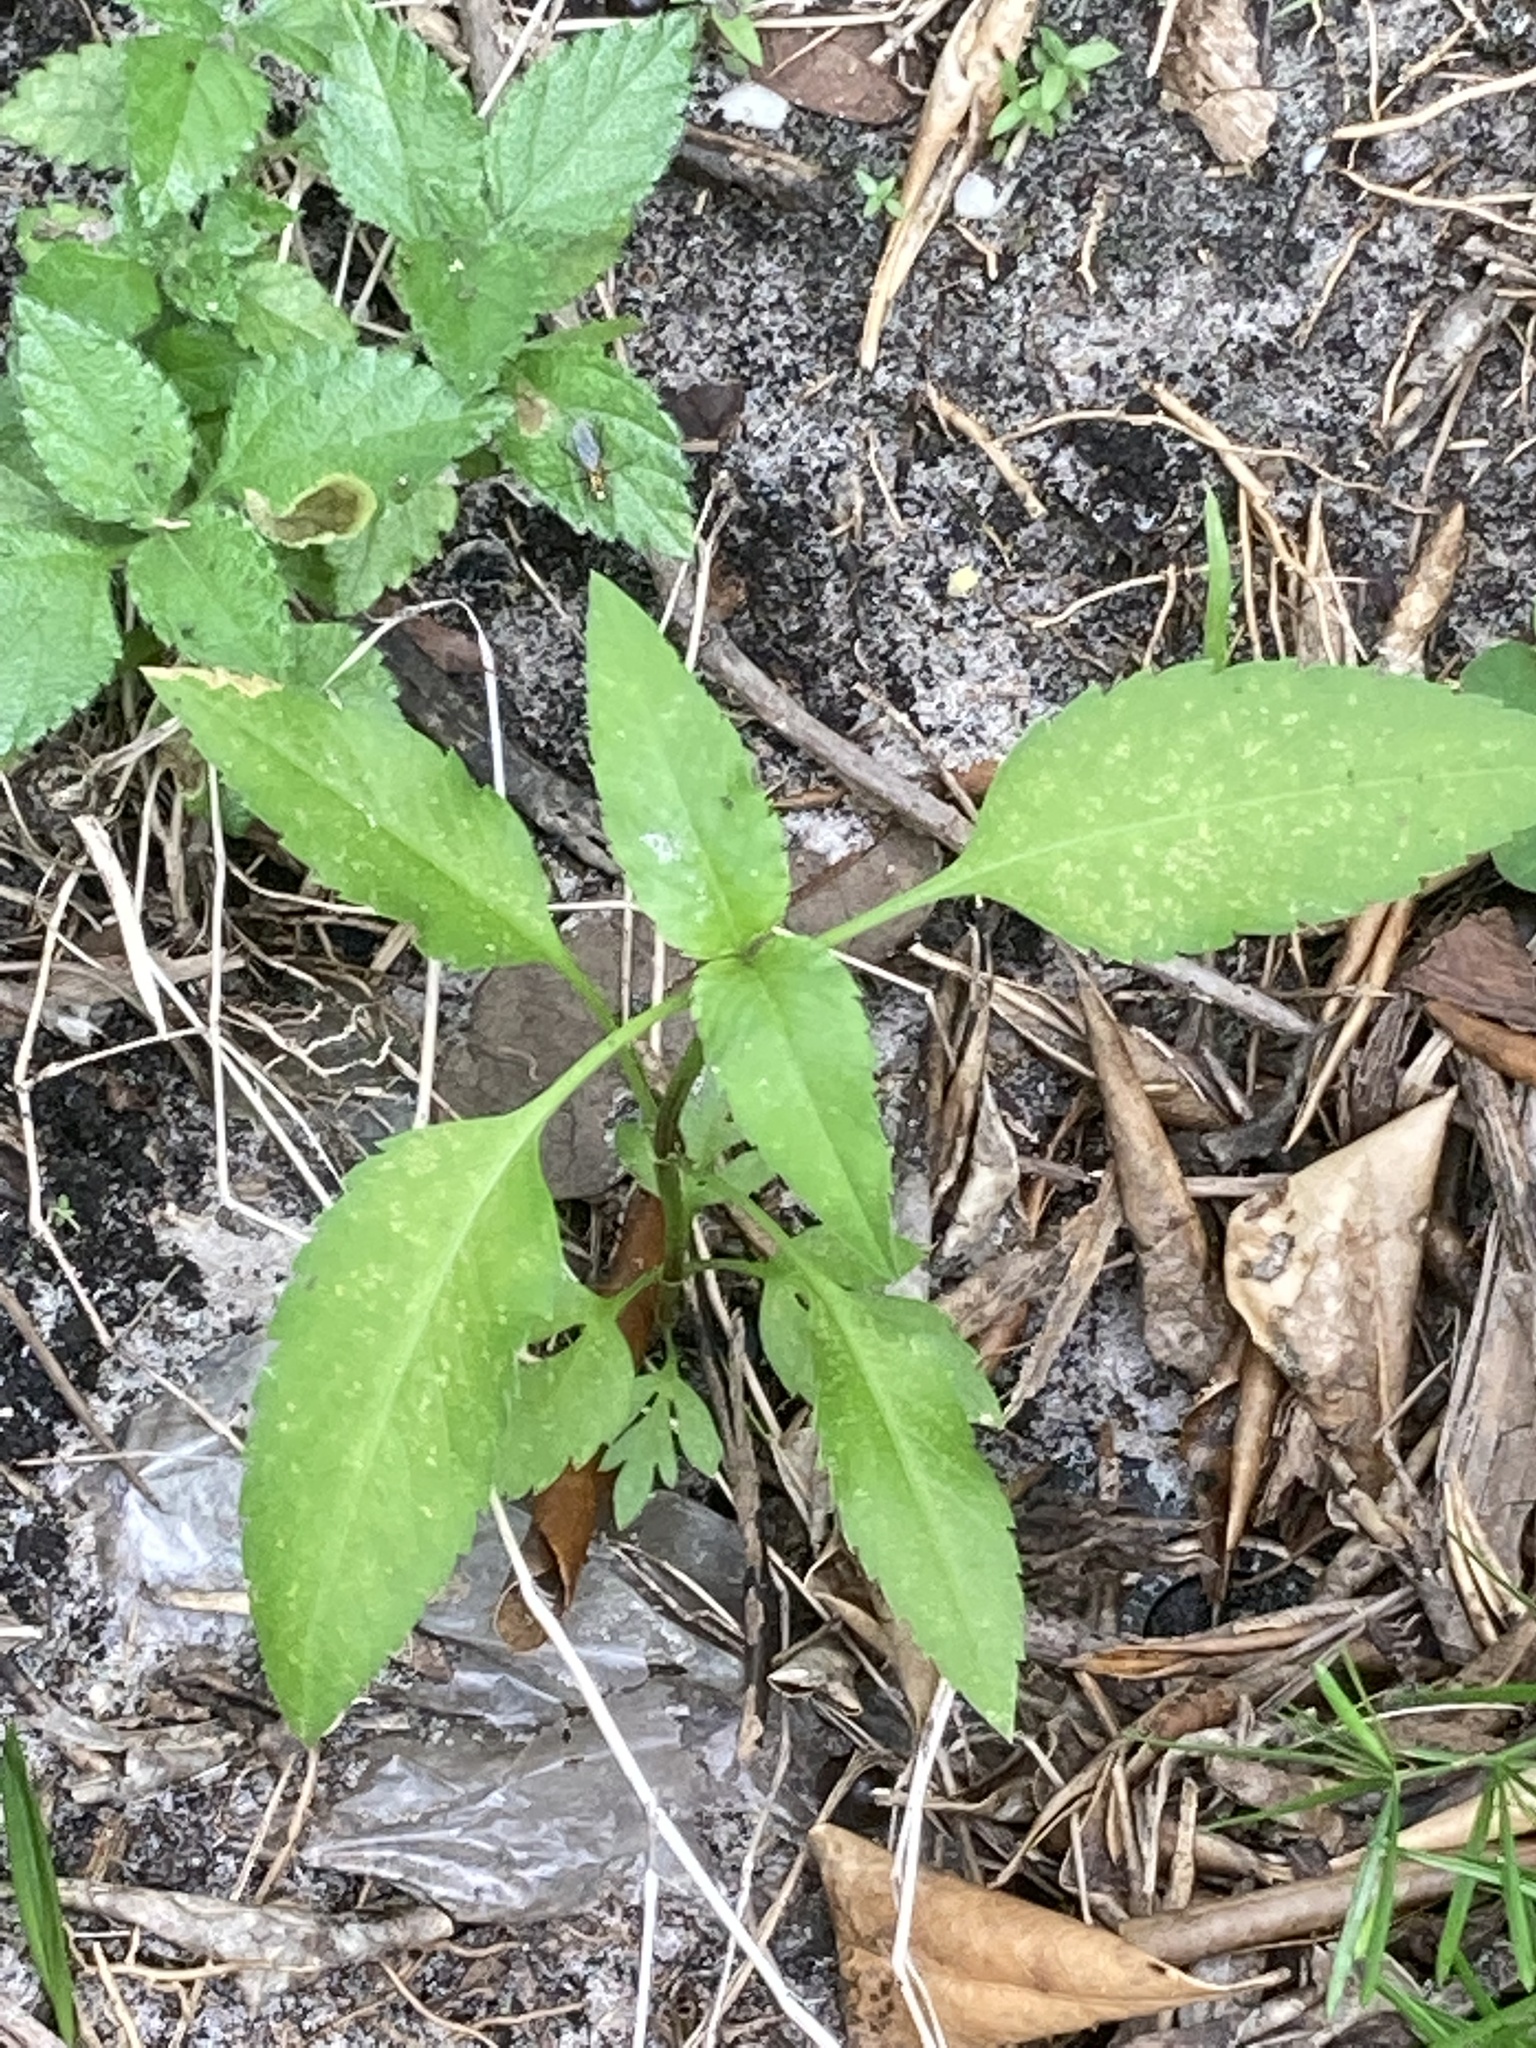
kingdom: Plantae
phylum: Tracheophyta
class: Magnoliopsida
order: Asterales
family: Asteraceae
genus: Bidens
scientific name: Bidens alba
